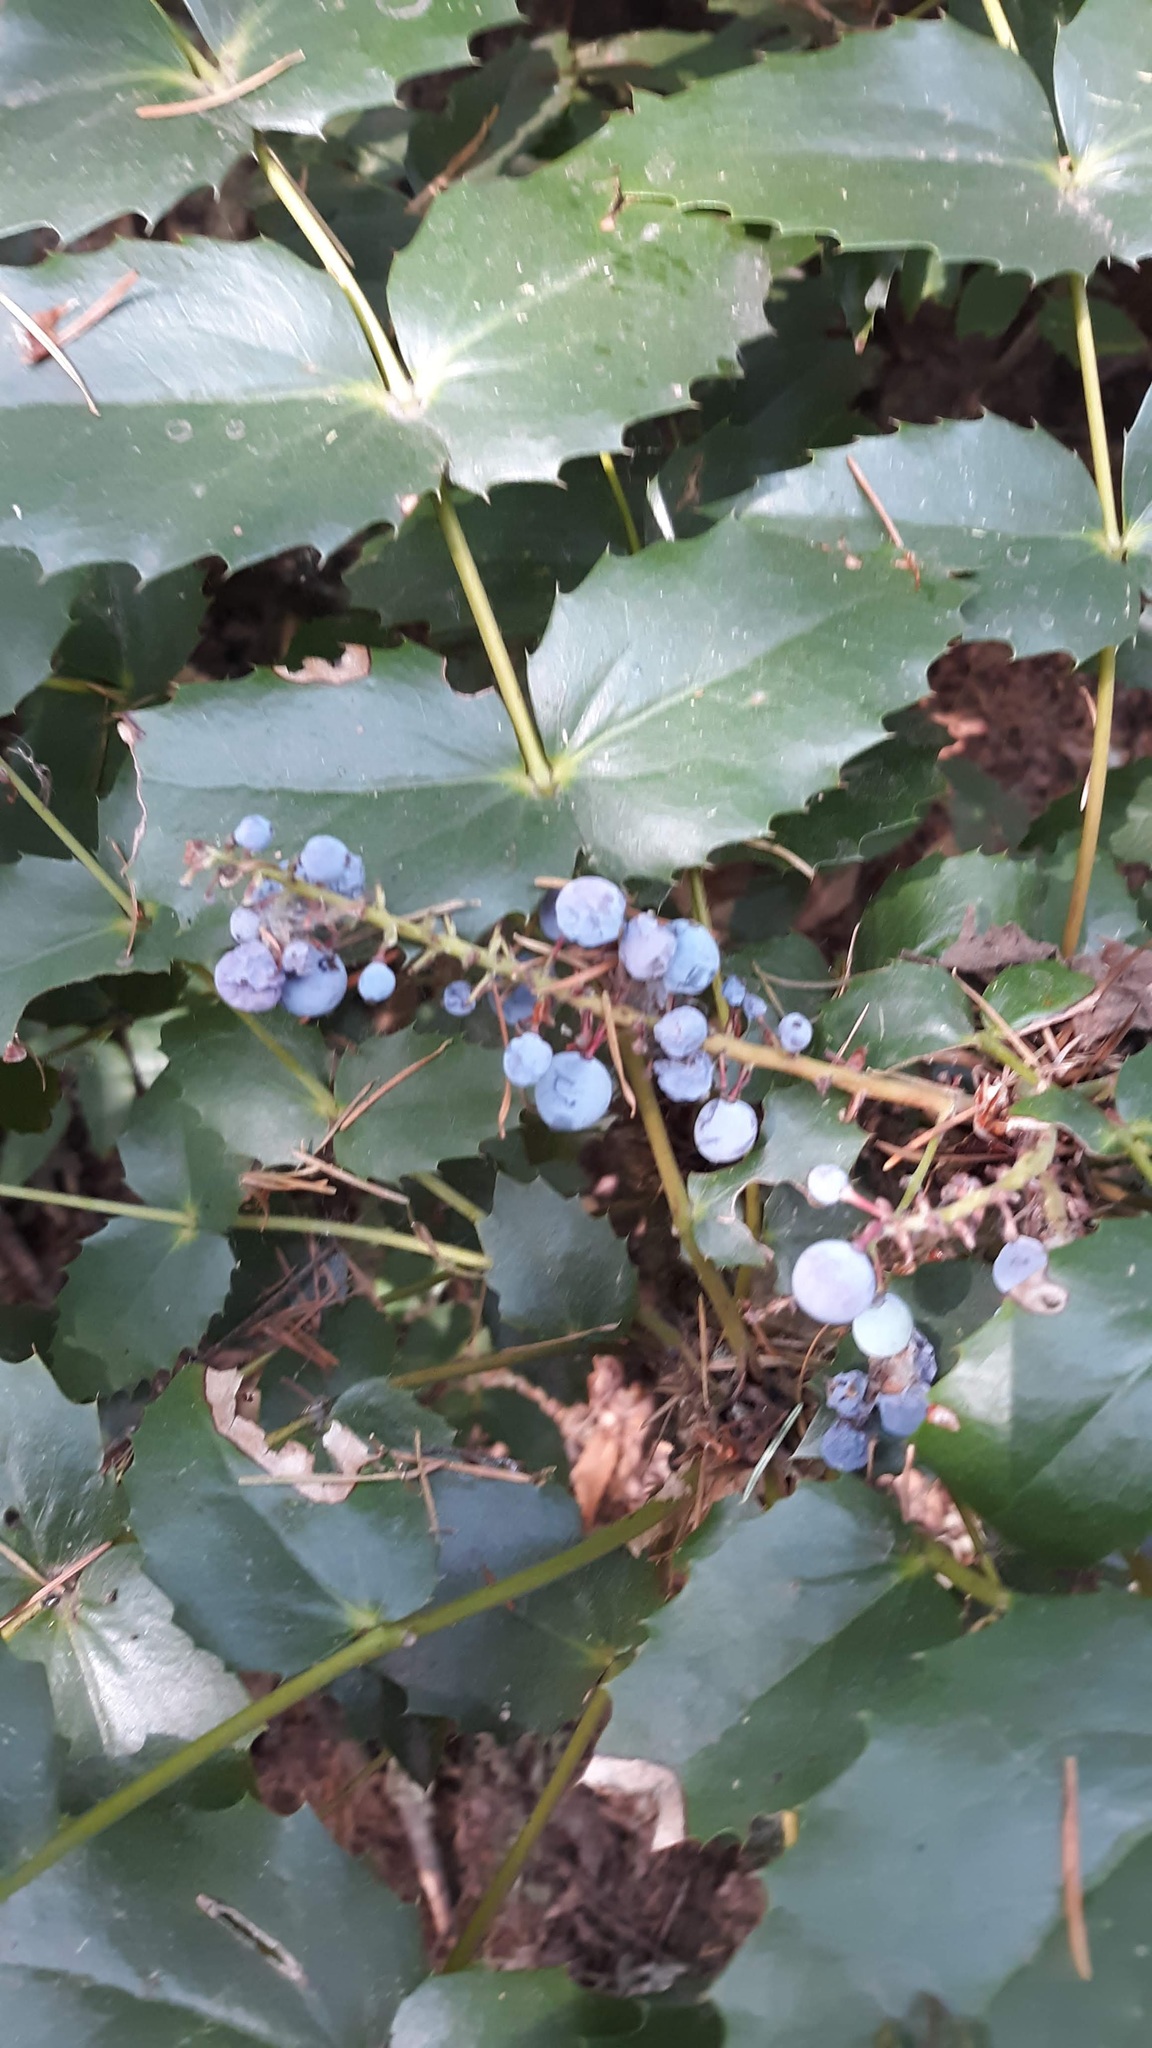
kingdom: Plantae
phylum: Tracheophyta
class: Magnoliopsida
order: Ranunculales
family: Berberidaceae
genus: Mahonia
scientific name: Mahonia nervosa
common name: Cascade oregon-grape
